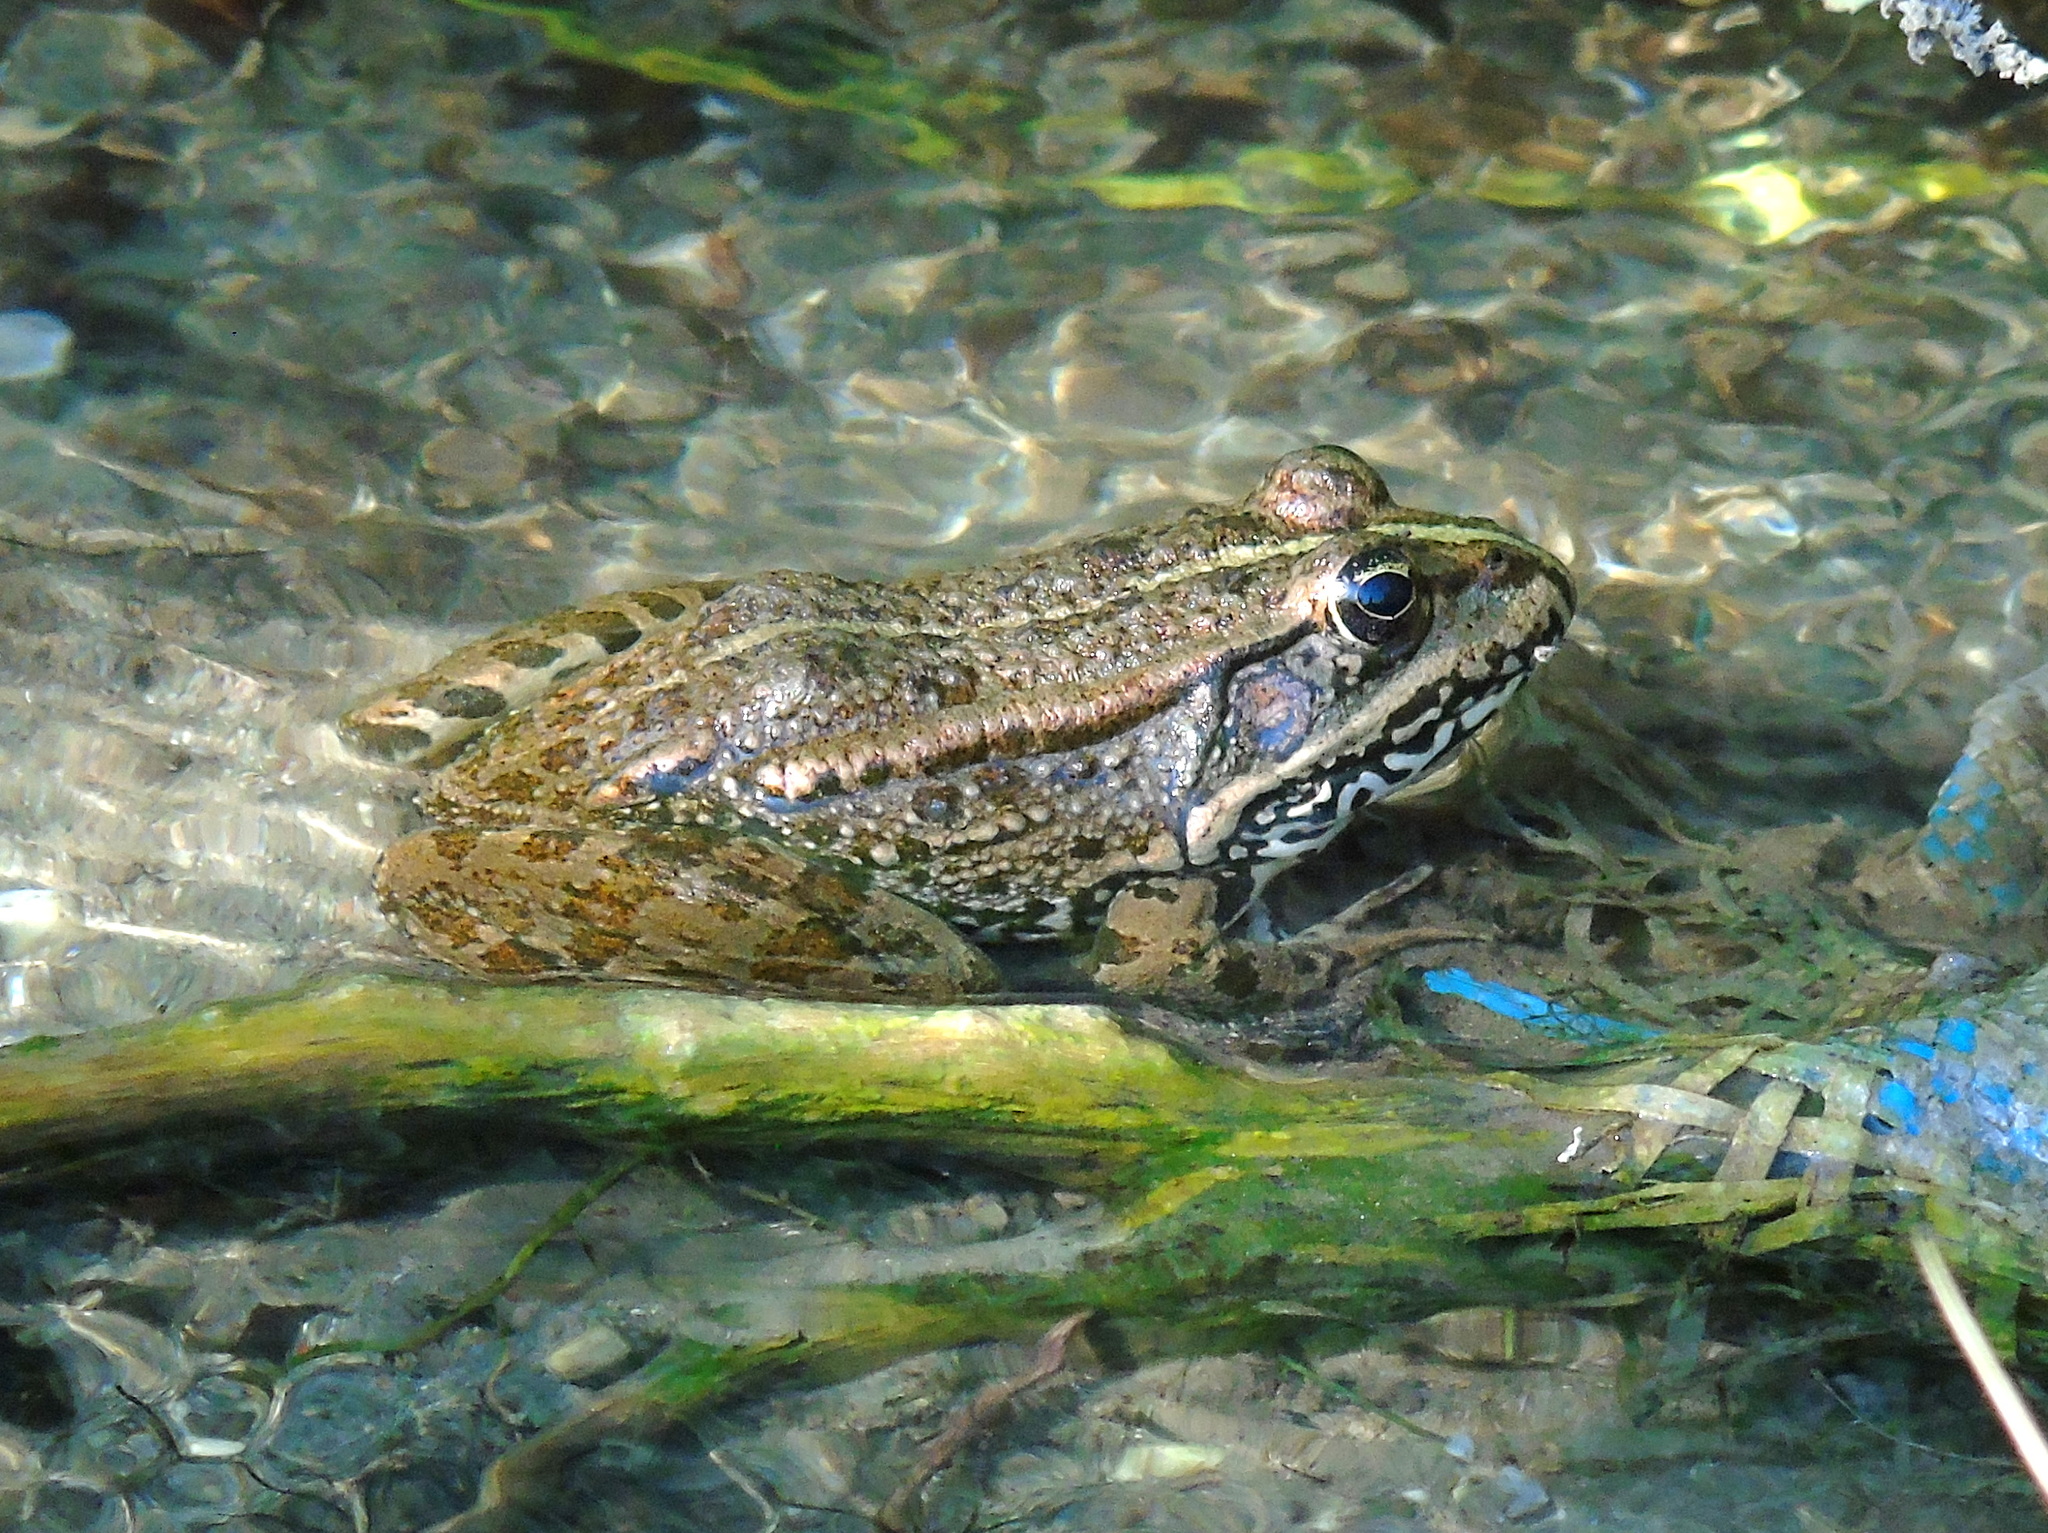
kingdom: Animalia
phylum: Chordata
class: Amphibia
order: Anura
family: Ranidae
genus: Pelophylax
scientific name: Pelophylax ridibundus
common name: Marsh frog
